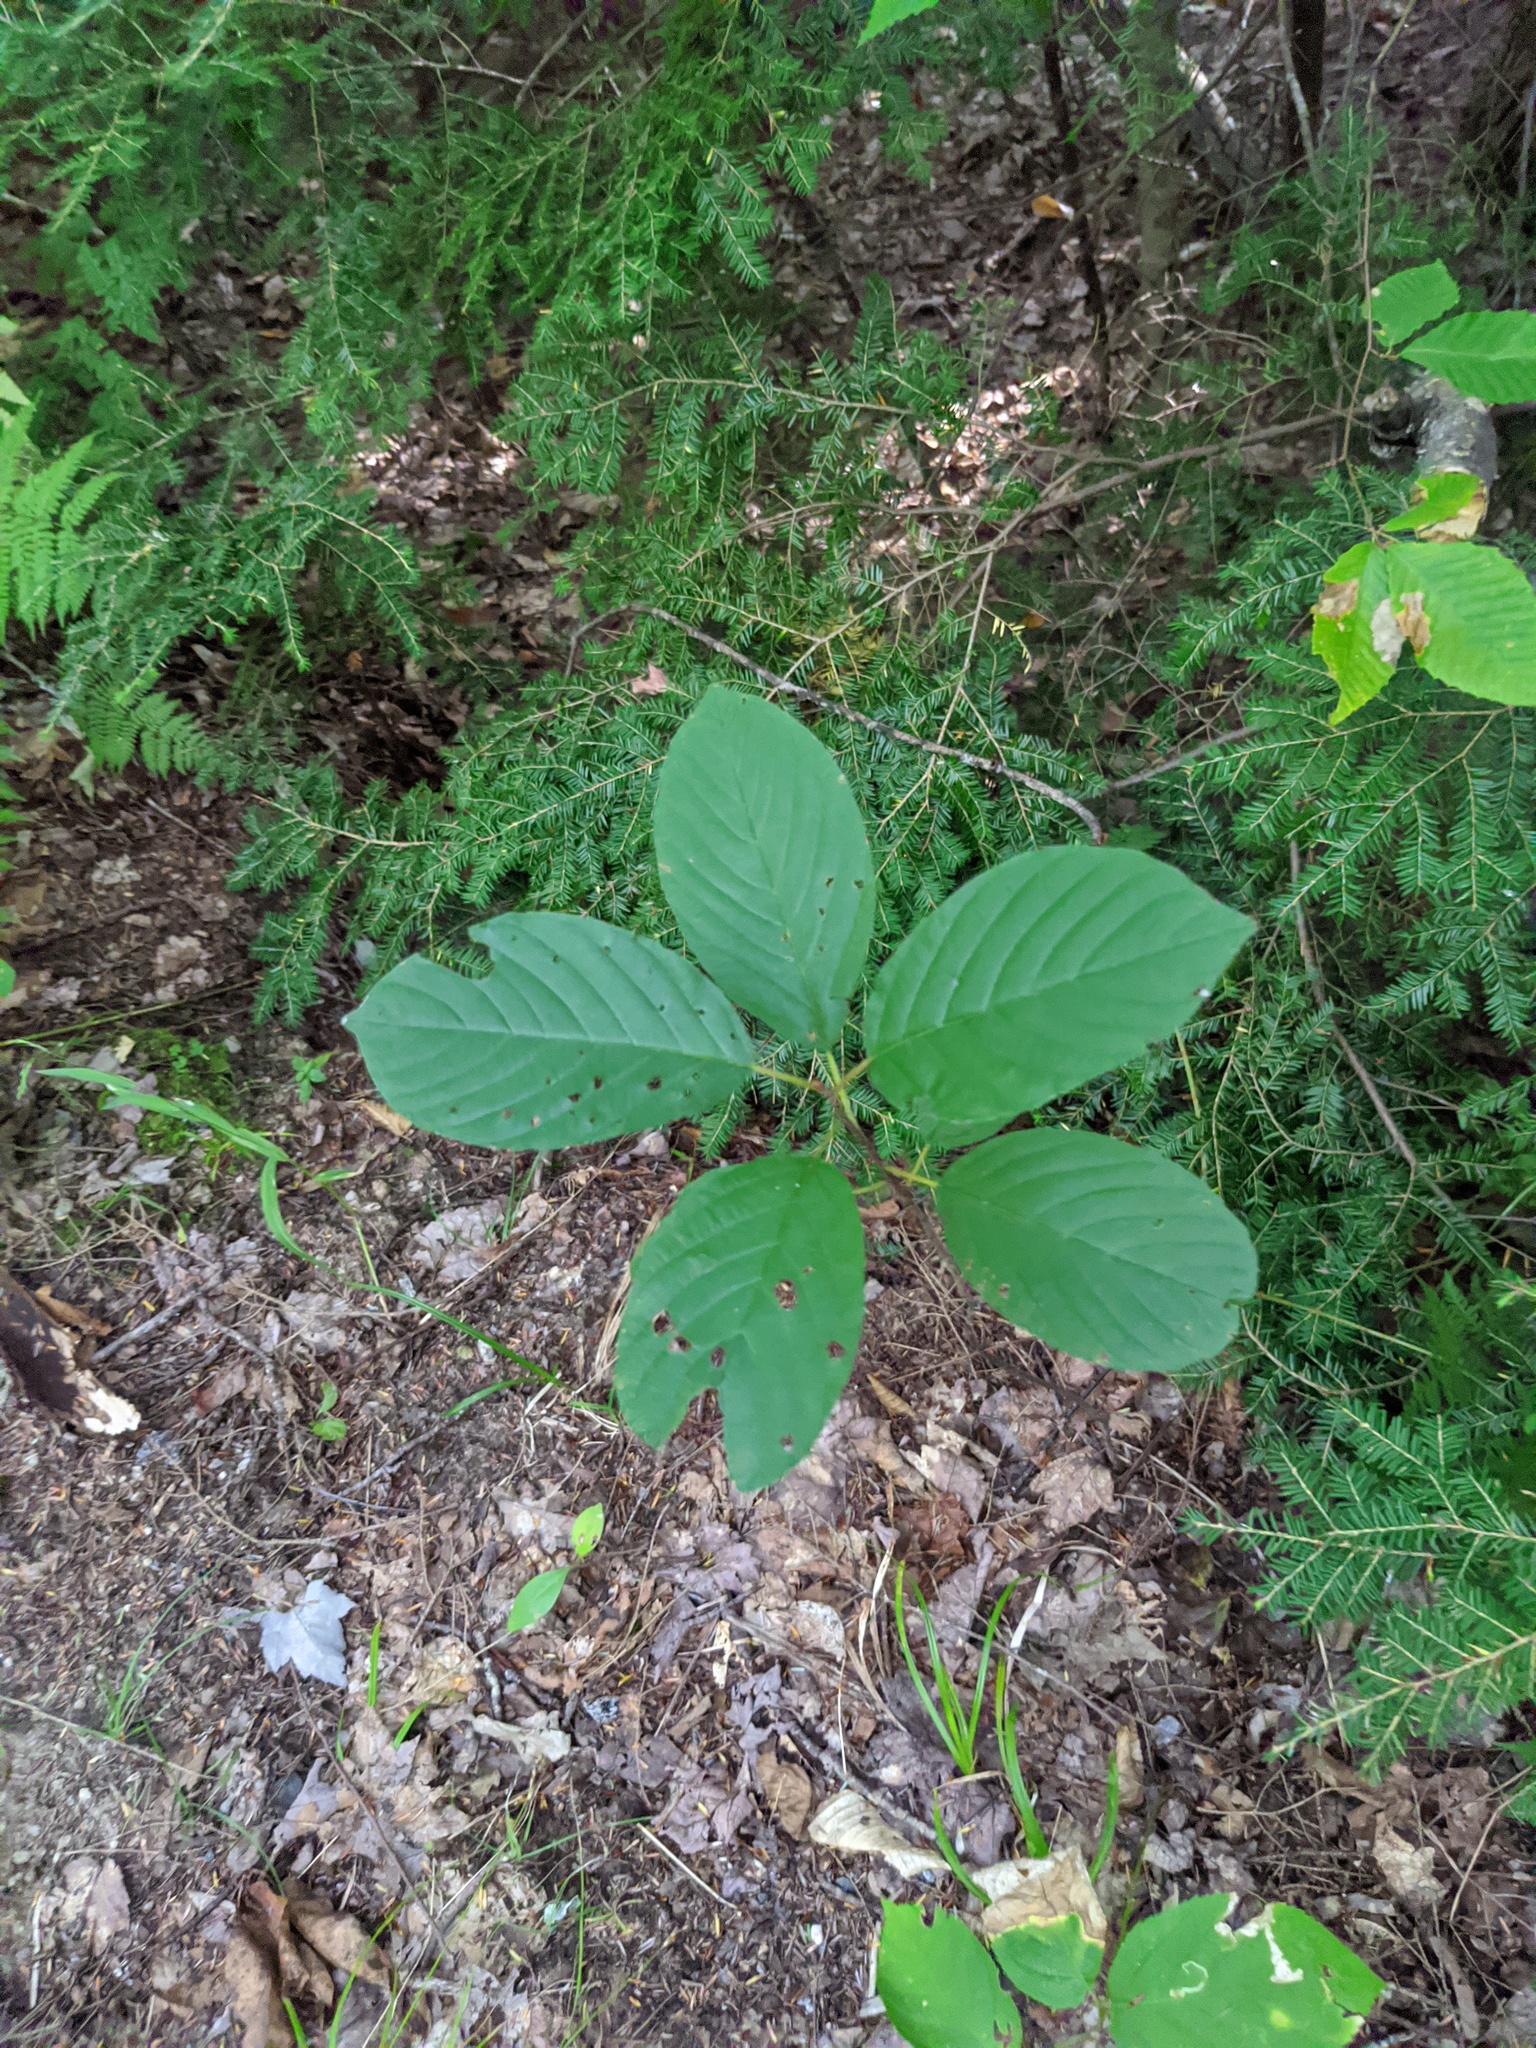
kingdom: Plantae
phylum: Tracheophyta
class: Magnoliopsida
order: Rosales
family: Rhamnaceae
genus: Frangula
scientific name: Frangula alnus
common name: Alder buckthorn
